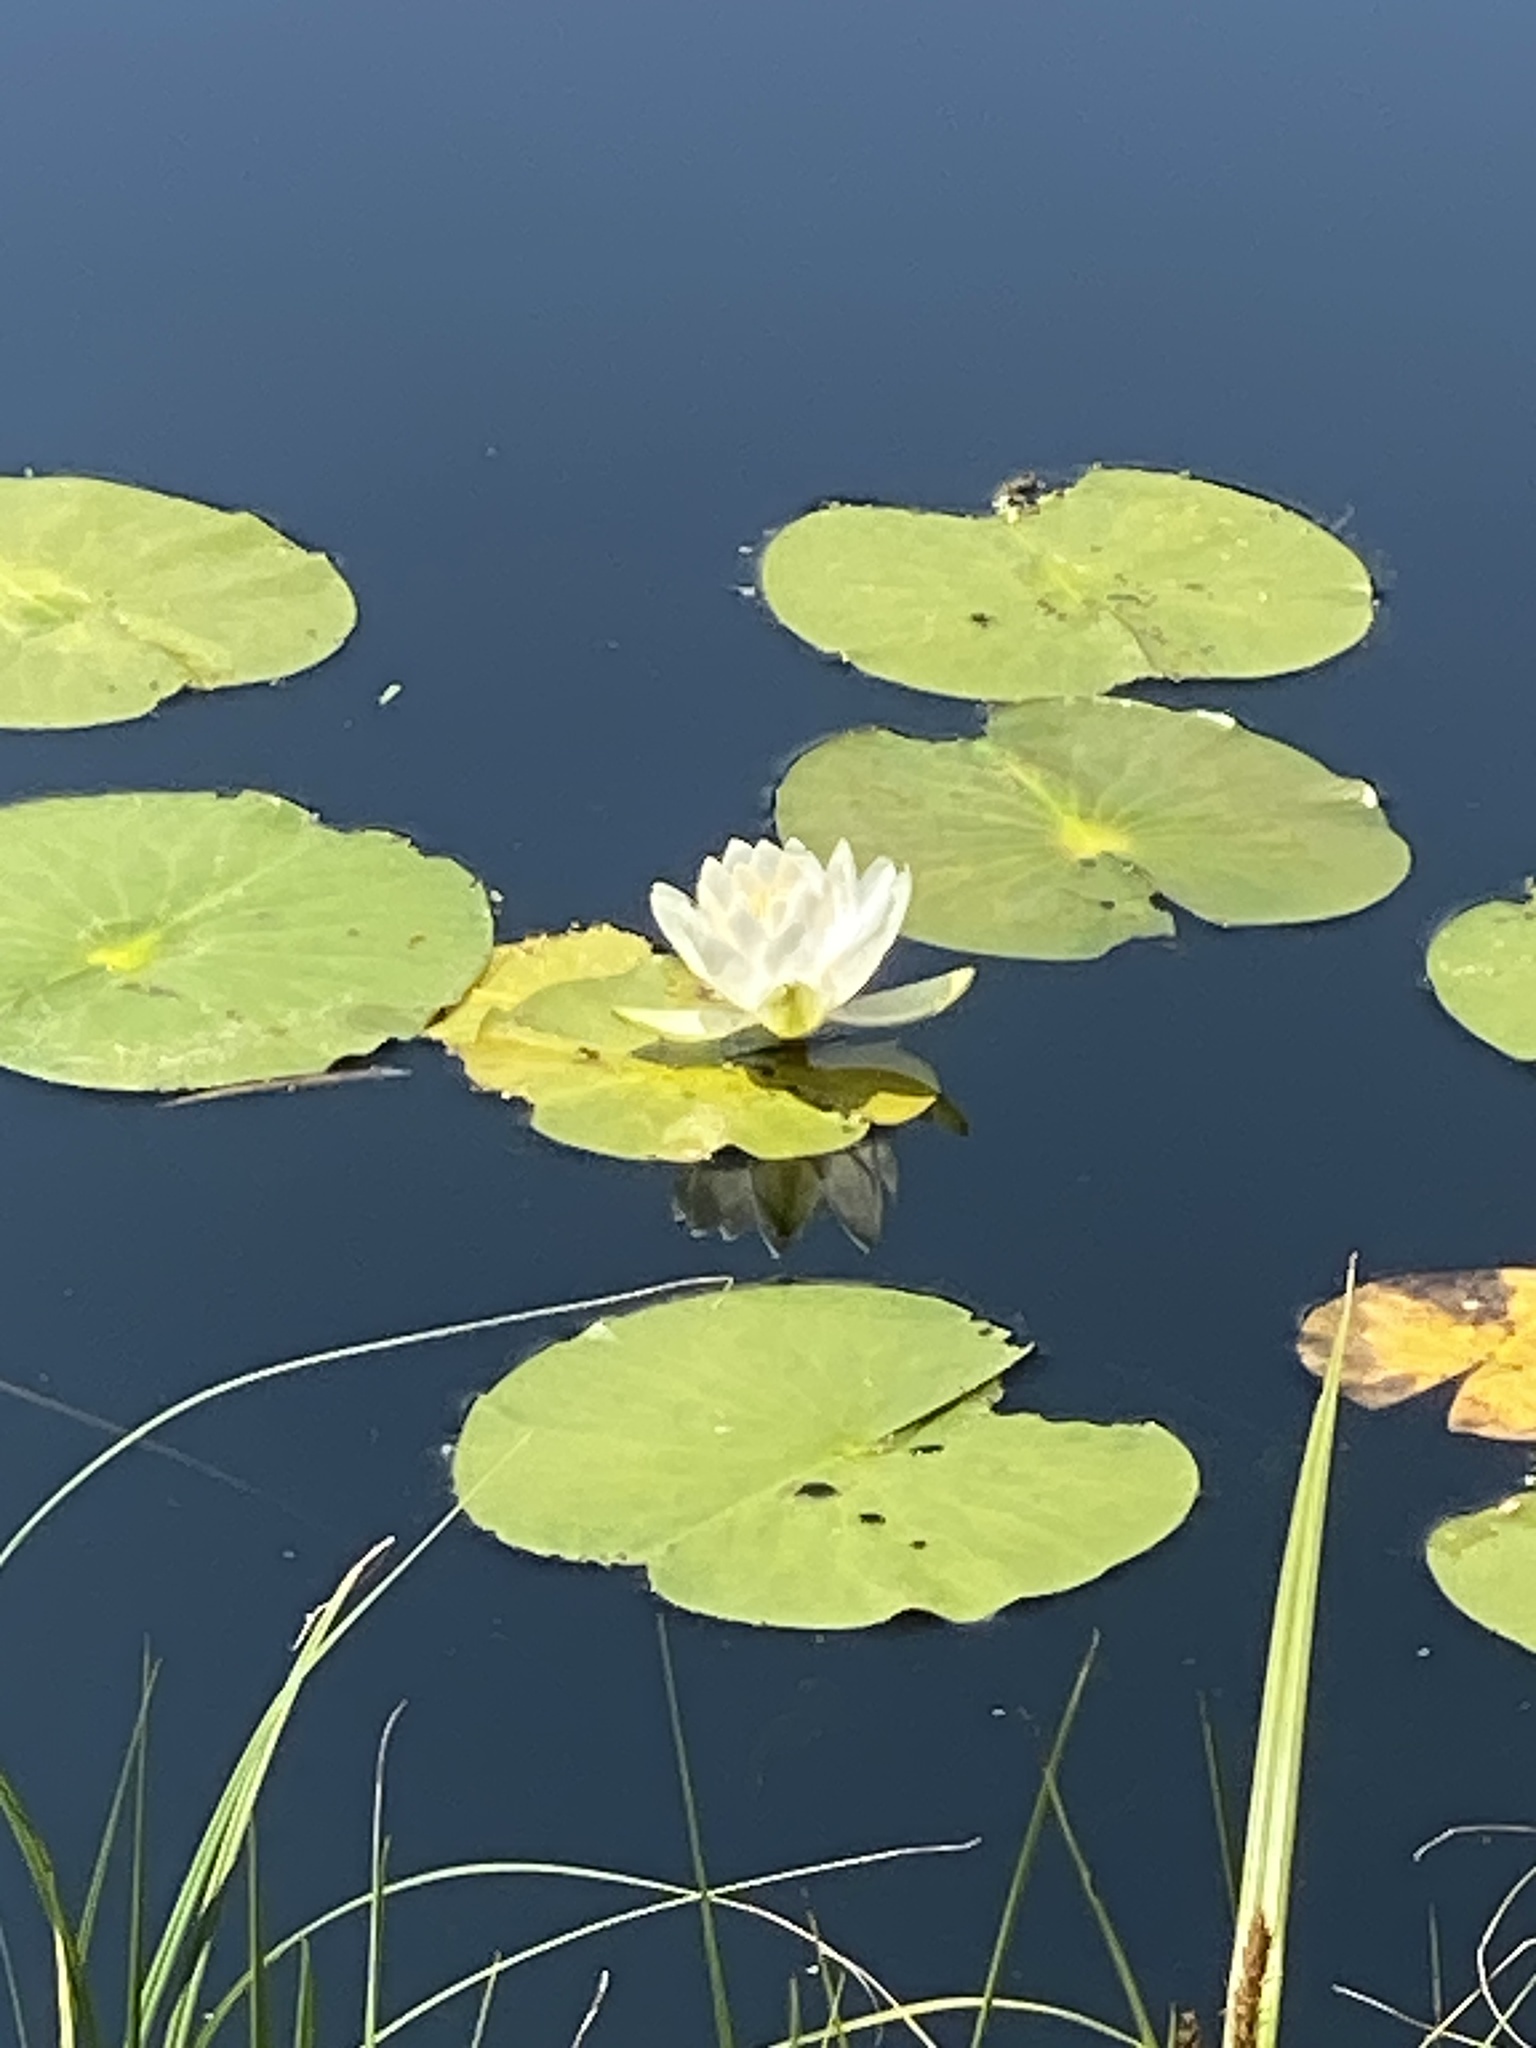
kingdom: Plantae
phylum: Tracheophyta
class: Magnoliopsida
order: Nymphaeales
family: Nymphaeaceae
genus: Nymphaea
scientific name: Nymphaea odorata
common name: Fragrant water-lily
